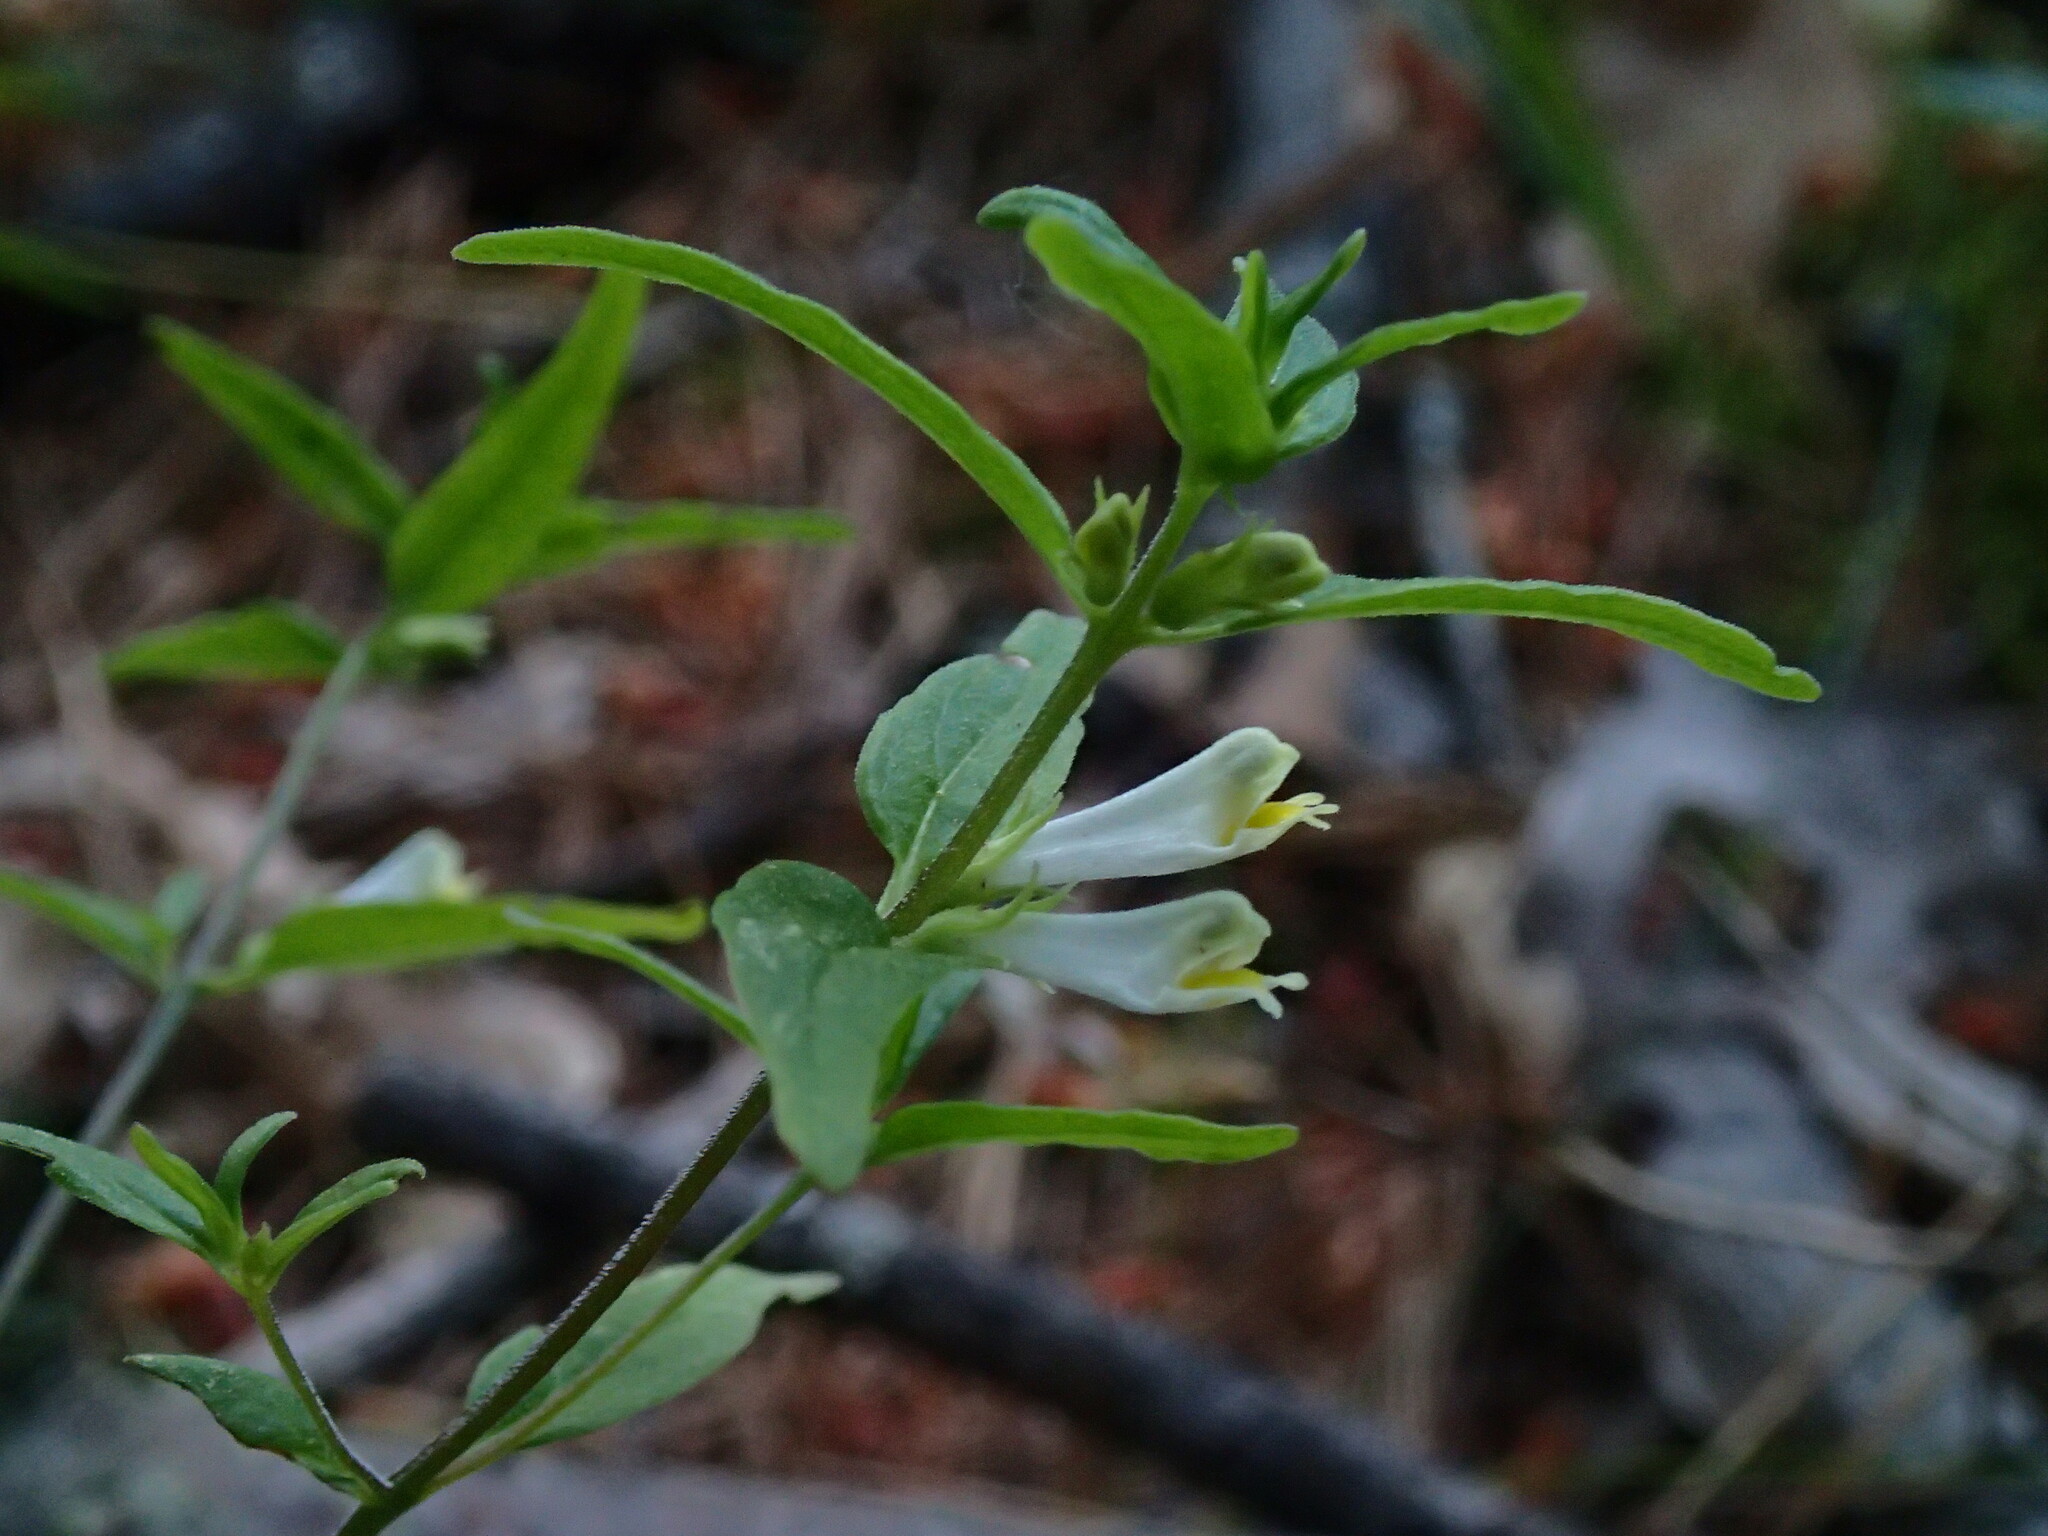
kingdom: Plantae
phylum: Tracheophyta
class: Magnoliopsida
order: Lamiales
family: Orobanchaceae
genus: Melampyrum
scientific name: Melampyrum lineare
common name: American cow-wheat
